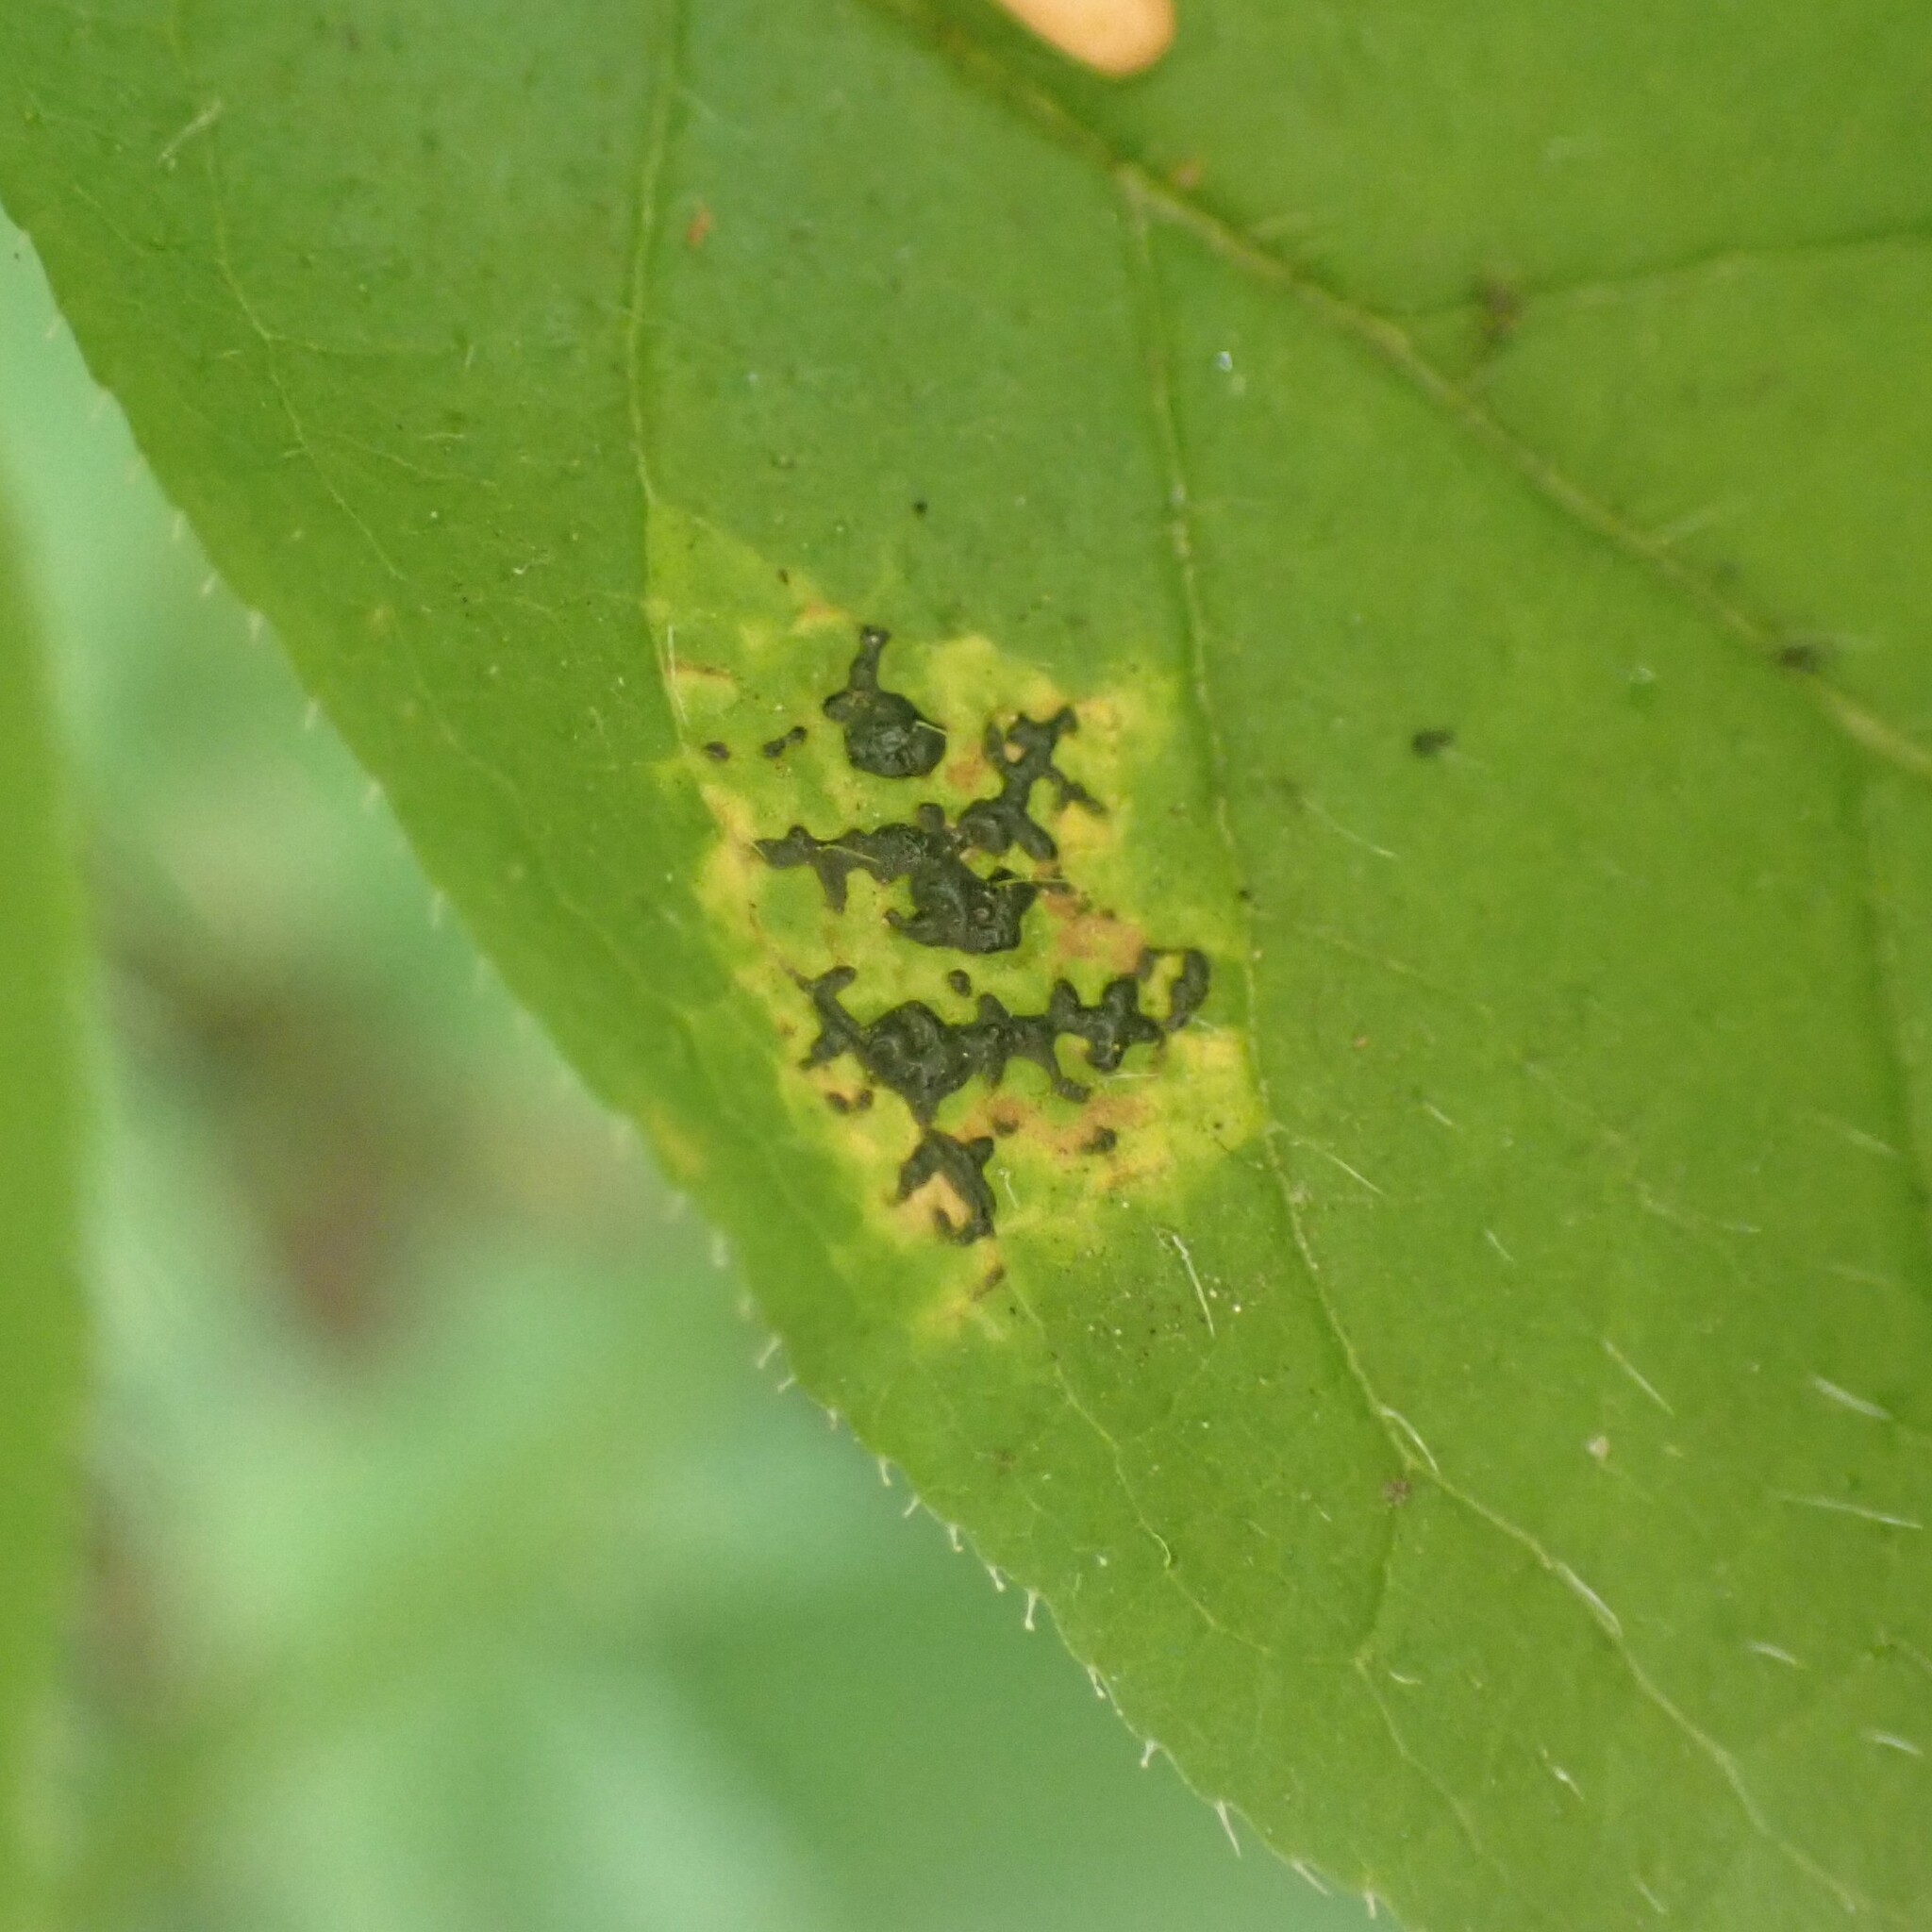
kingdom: Fungi
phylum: Ascomycota
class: Leotiomycetes
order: Rhytismatales
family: Rhytismataceae
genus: Rhytisma
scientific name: Rhytisma
